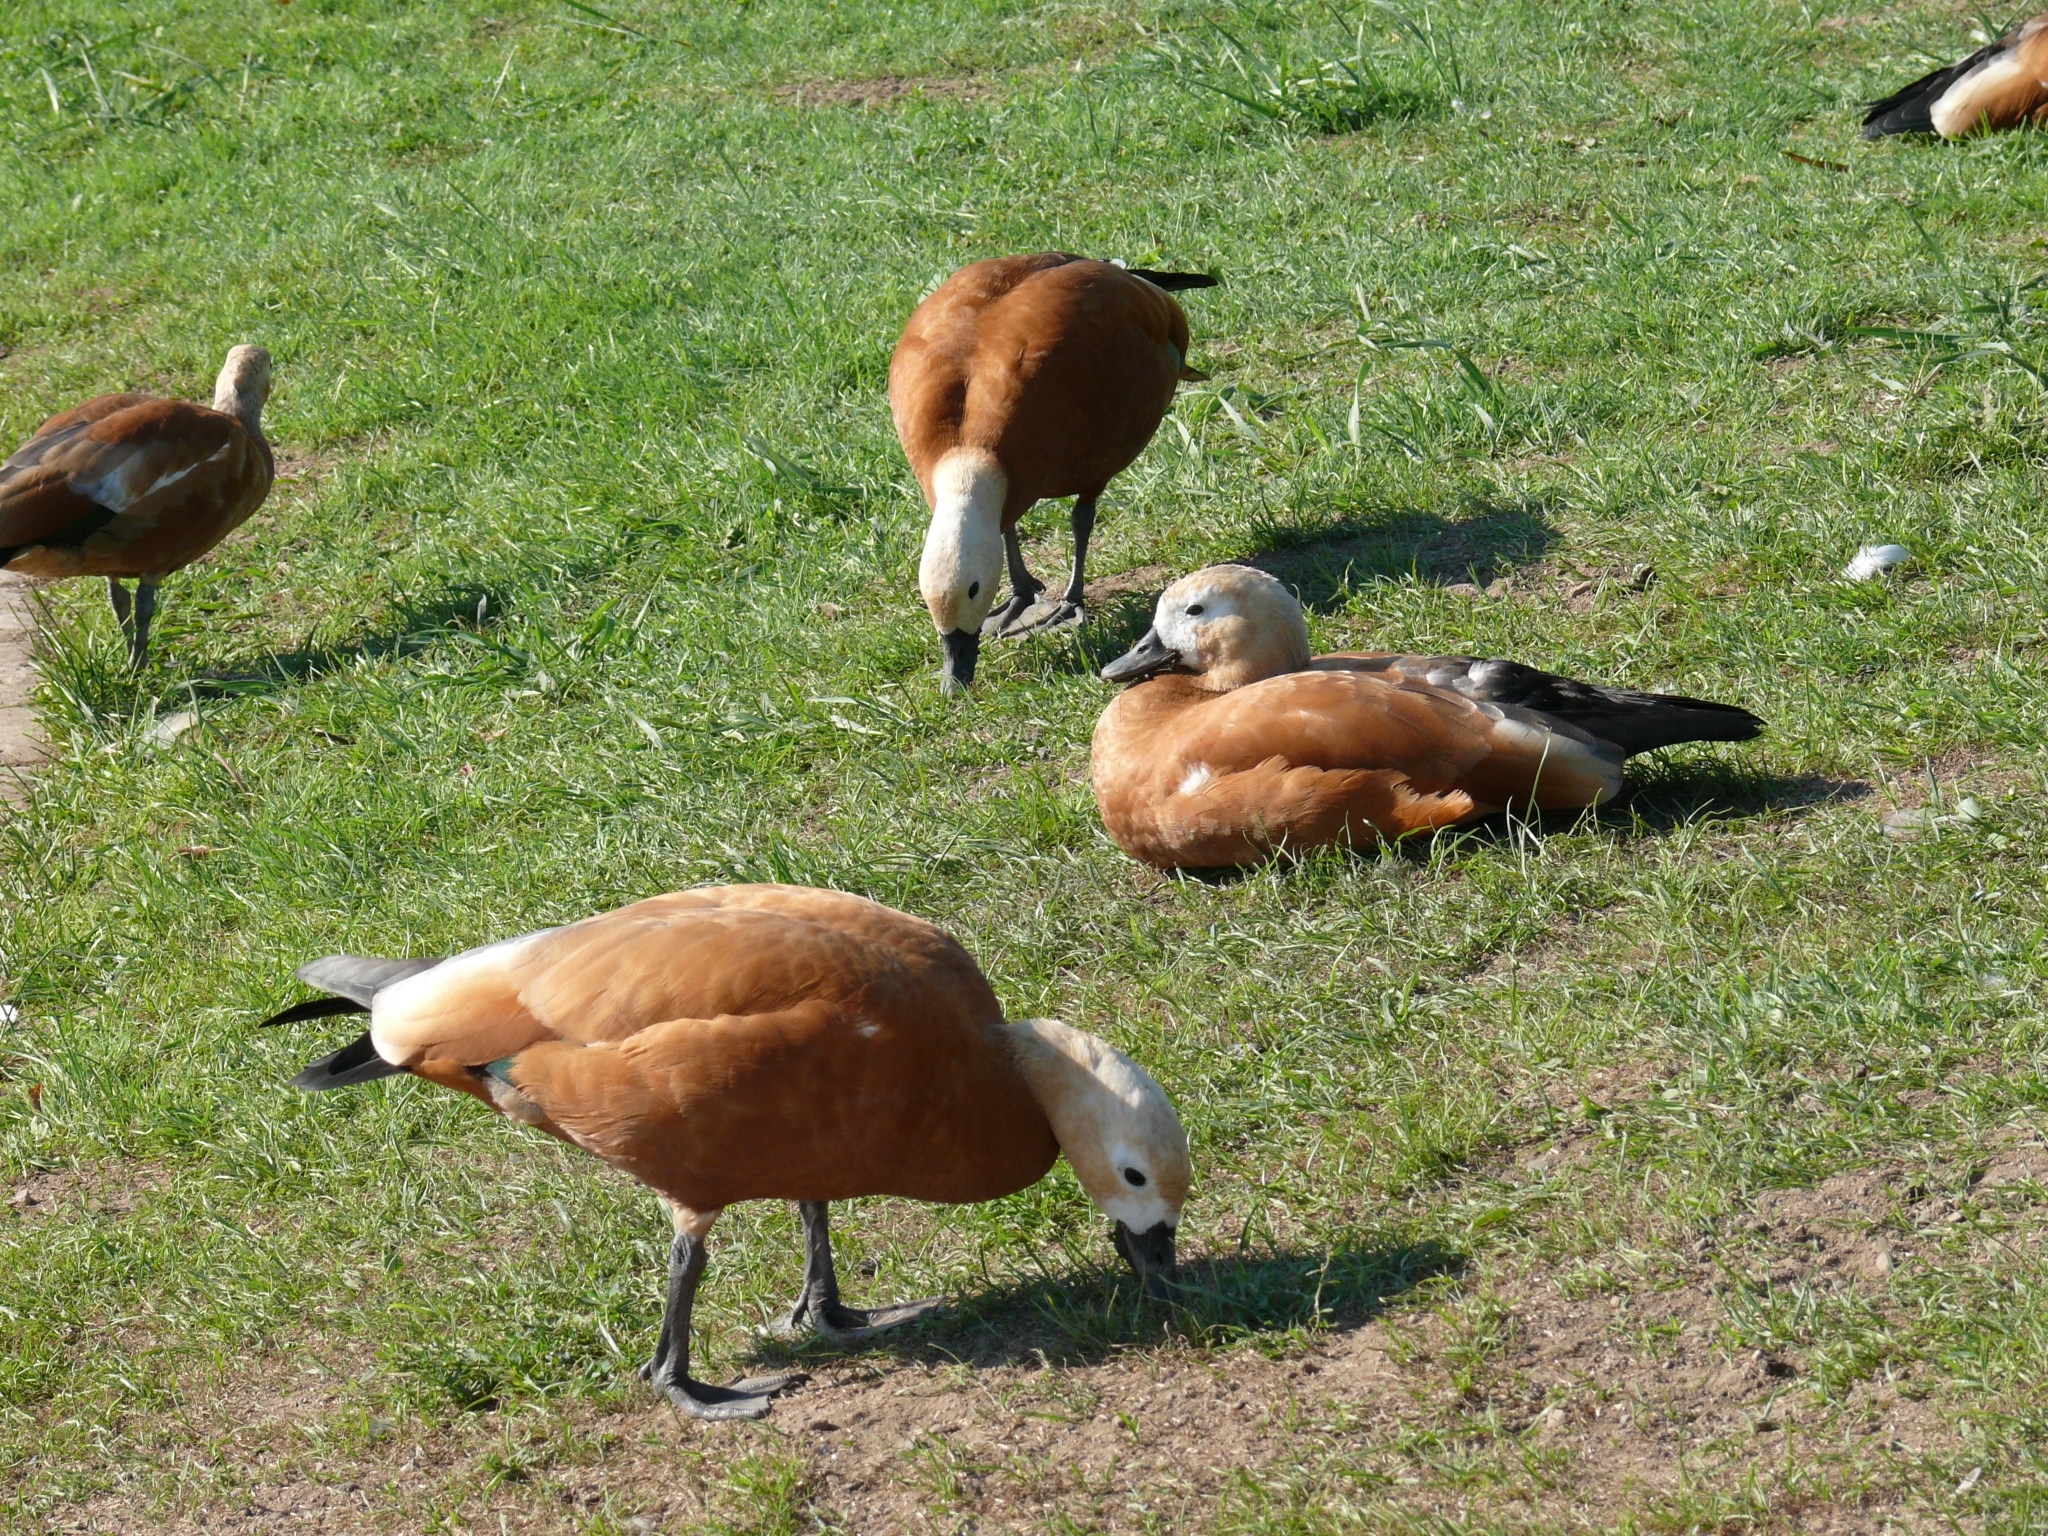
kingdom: Animalia
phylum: Chordata
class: Aves
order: Anseriformes
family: Anatidae
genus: Tadorna
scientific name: Tadorna ferruginea
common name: Ruddy shelduck
